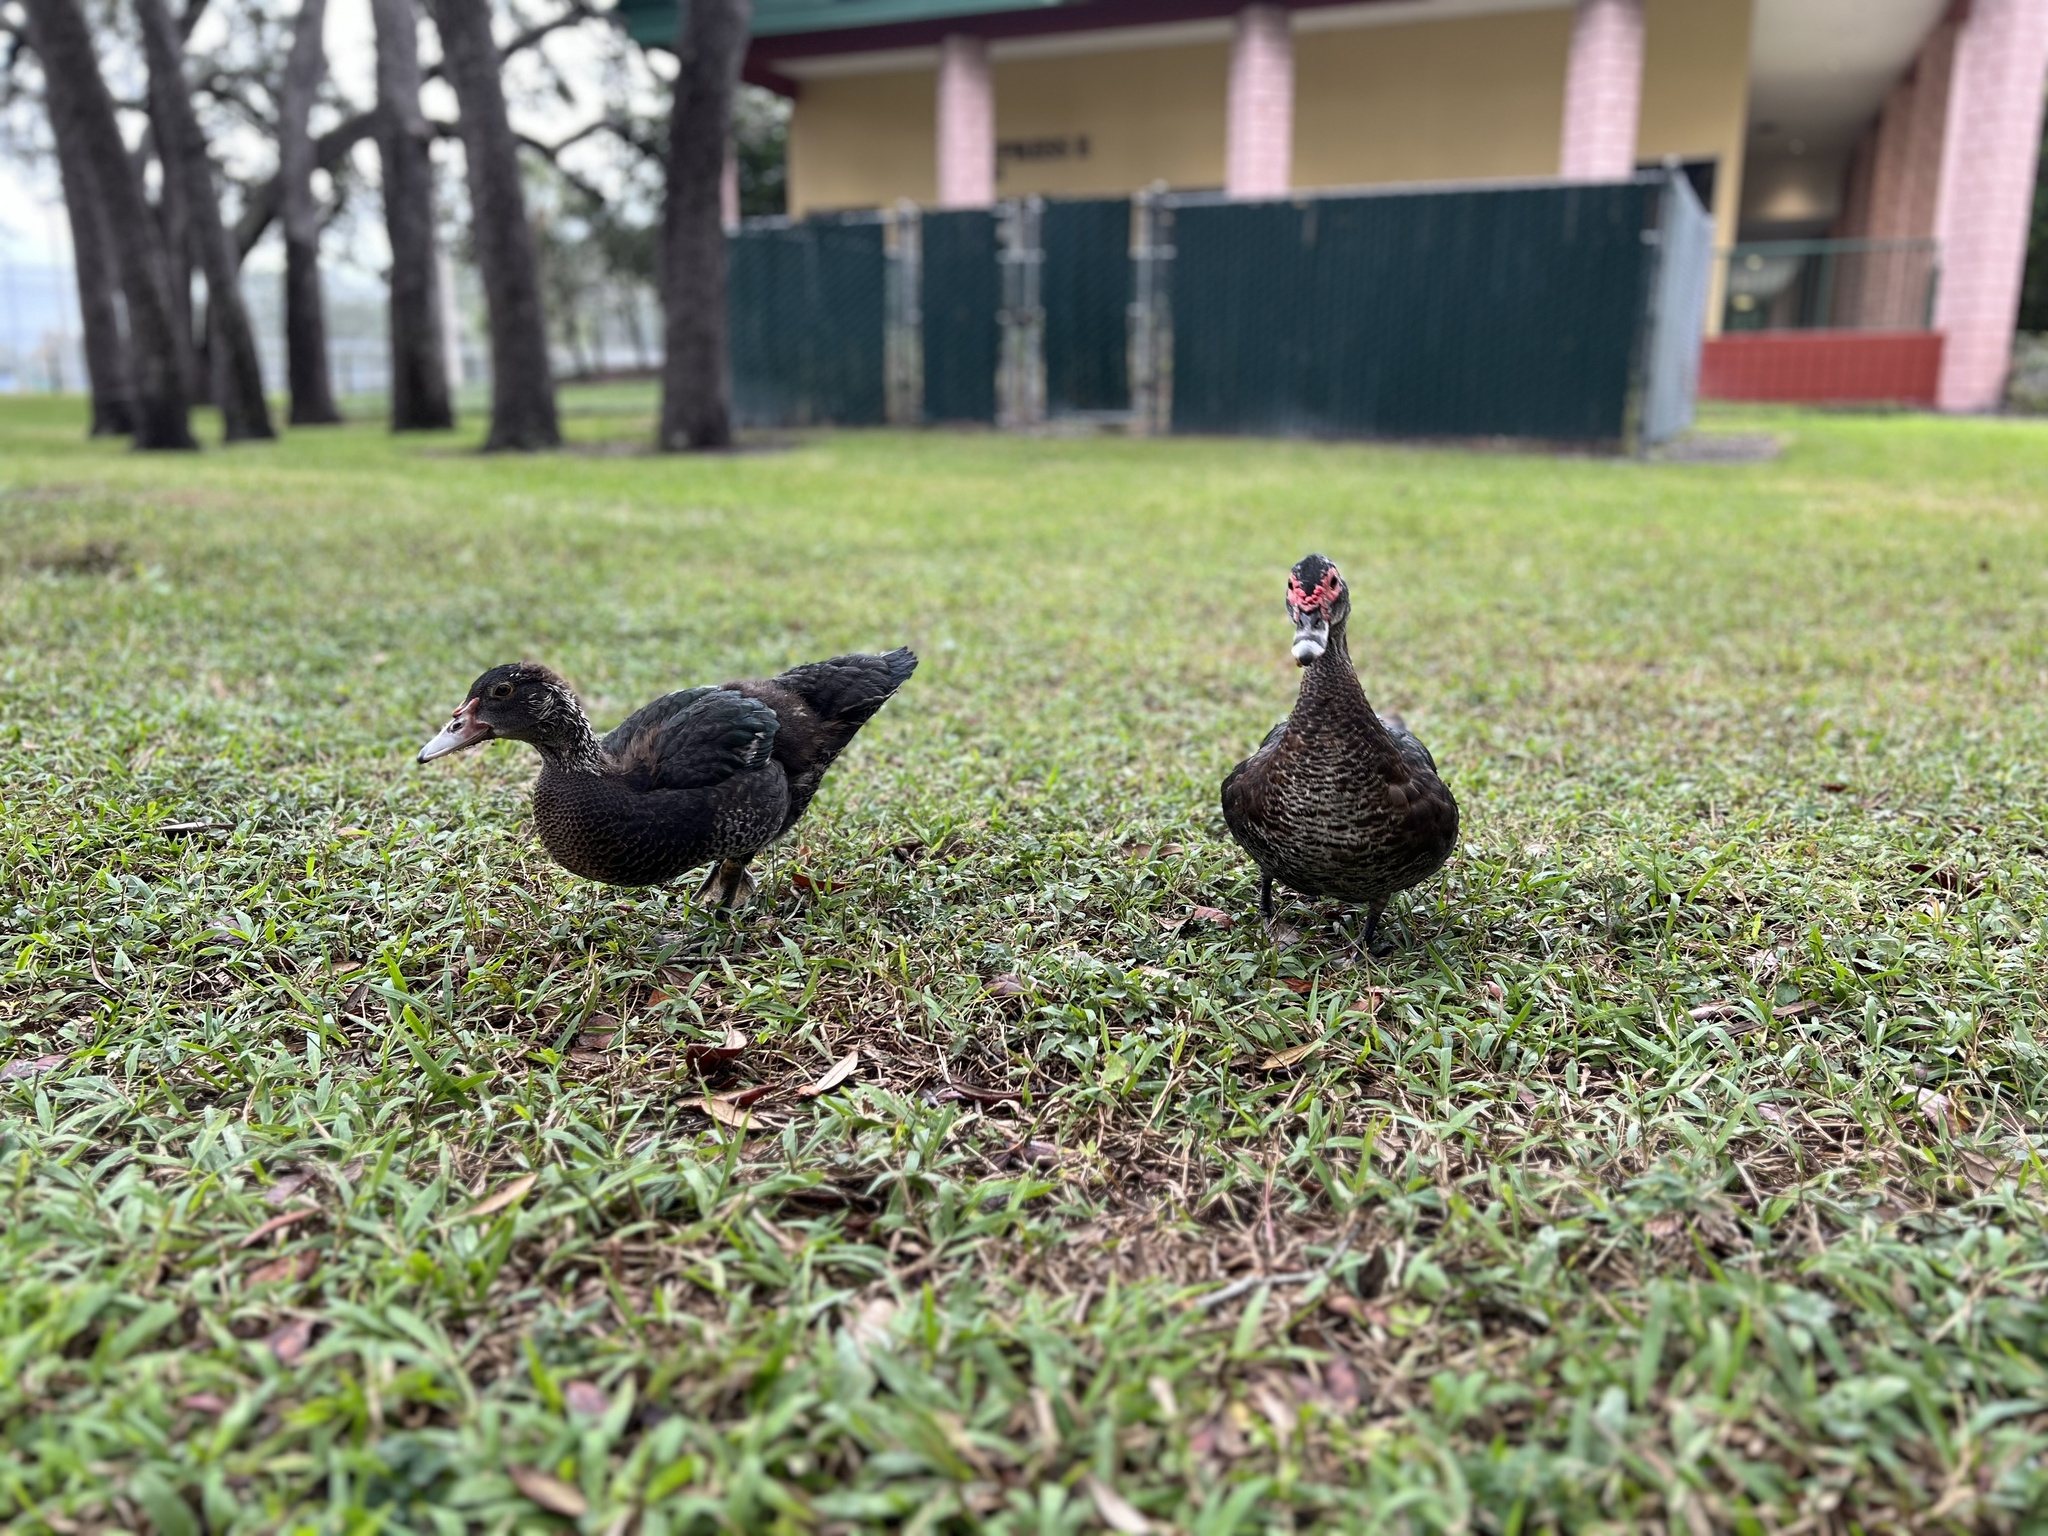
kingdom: Animalia
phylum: Chordata
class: Aves
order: Anseriformes
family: Anatidae
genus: Cairina
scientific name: Cairina moschata
